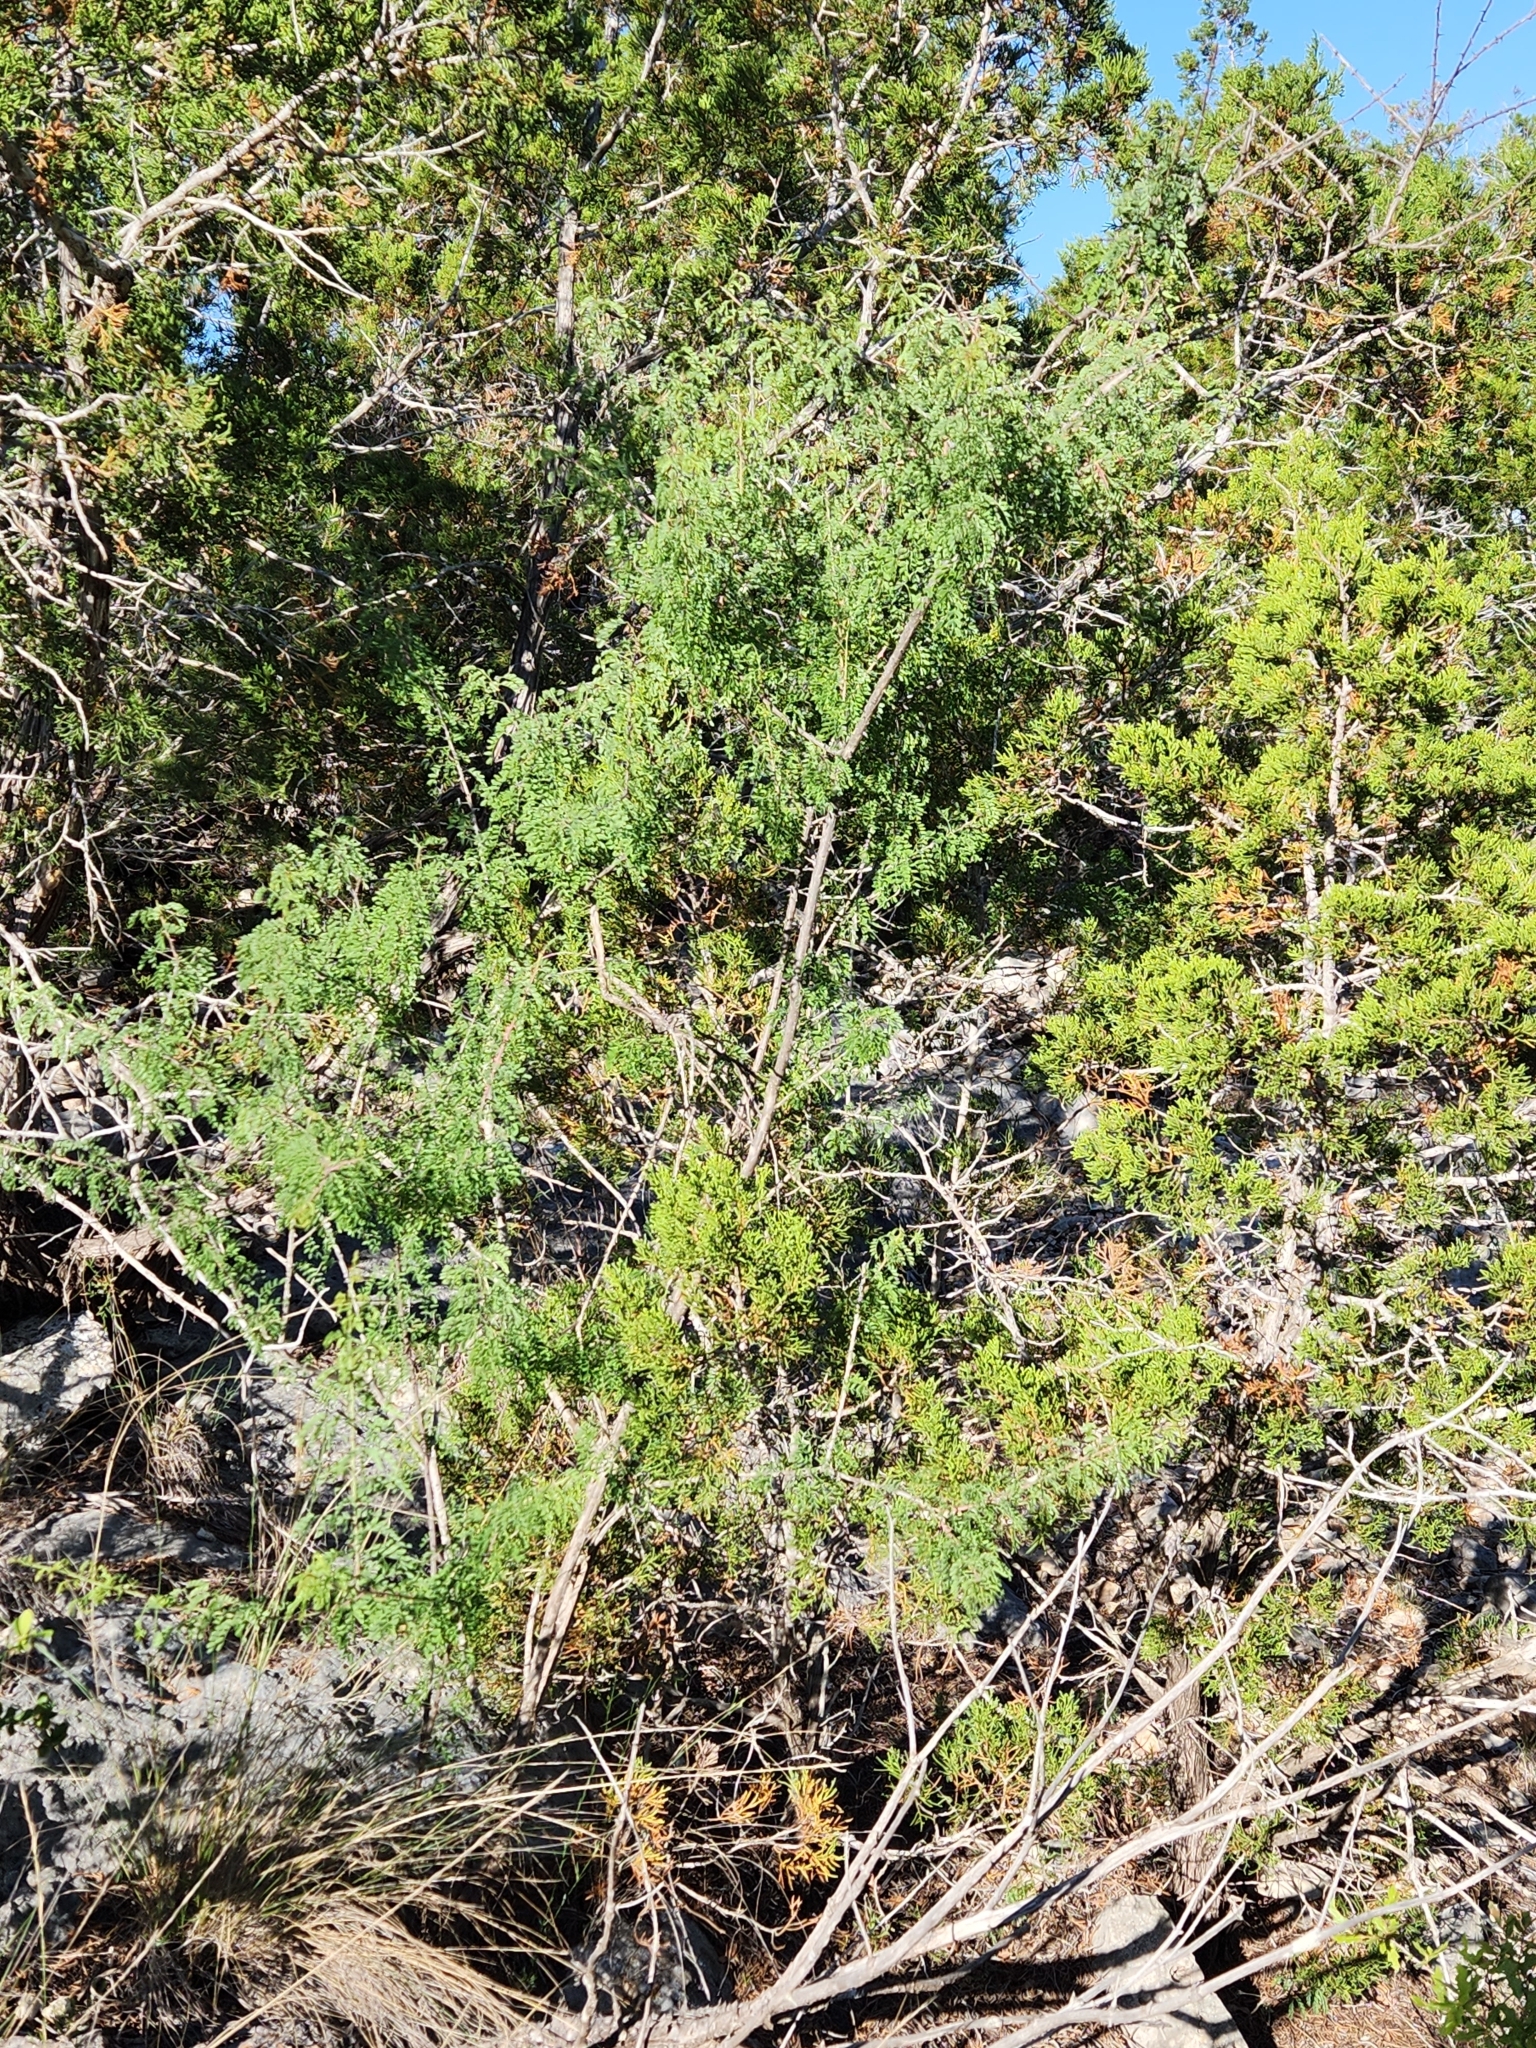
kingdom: Plantae
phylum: Tracheophyta
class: Magnoliopsida
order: Fabales
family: Fabaceae
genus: Mimosa
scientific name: Mimosa borealis
